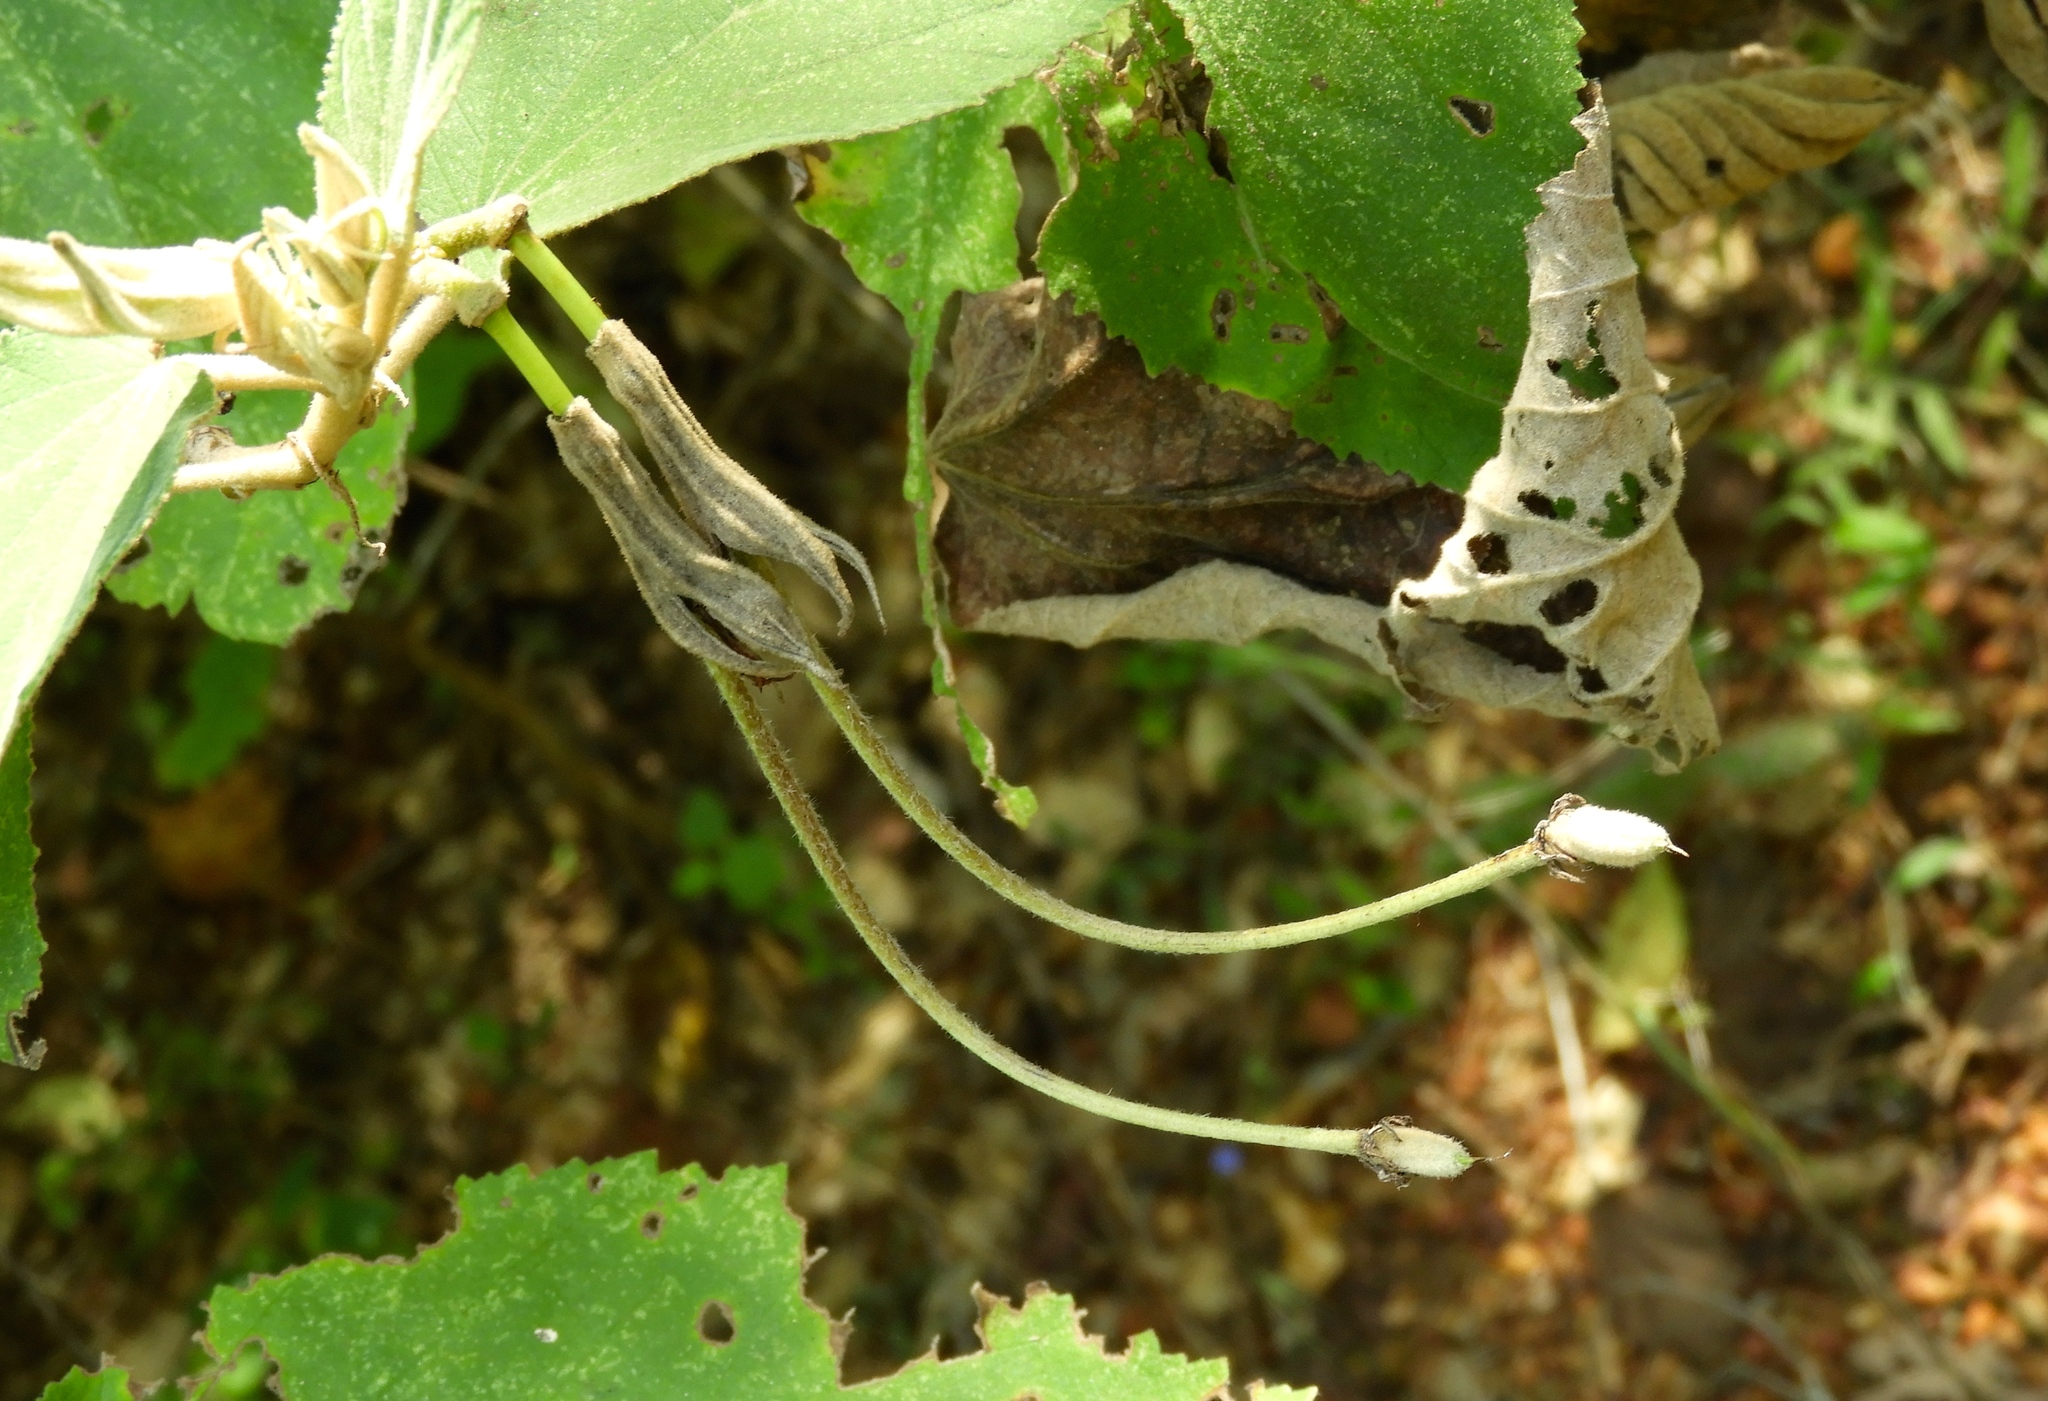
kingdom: Plantae
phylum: Tracheophyta
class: Magnoliopsida
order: Malvales
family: Malvaceae
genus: Helicteres
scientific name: Helicteres baruensis
